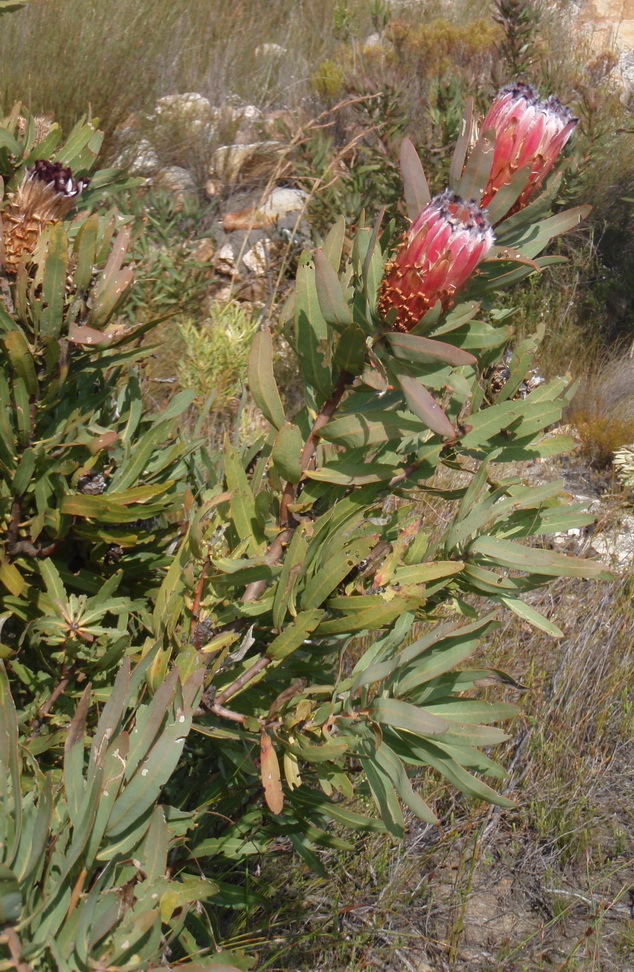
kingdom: Plantae
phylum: Tracheophyta
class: Magnoliopsida
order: Proteales
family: Proteaceae
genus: Protea
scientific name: Protea neriifolia
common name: Blue sugarbush
